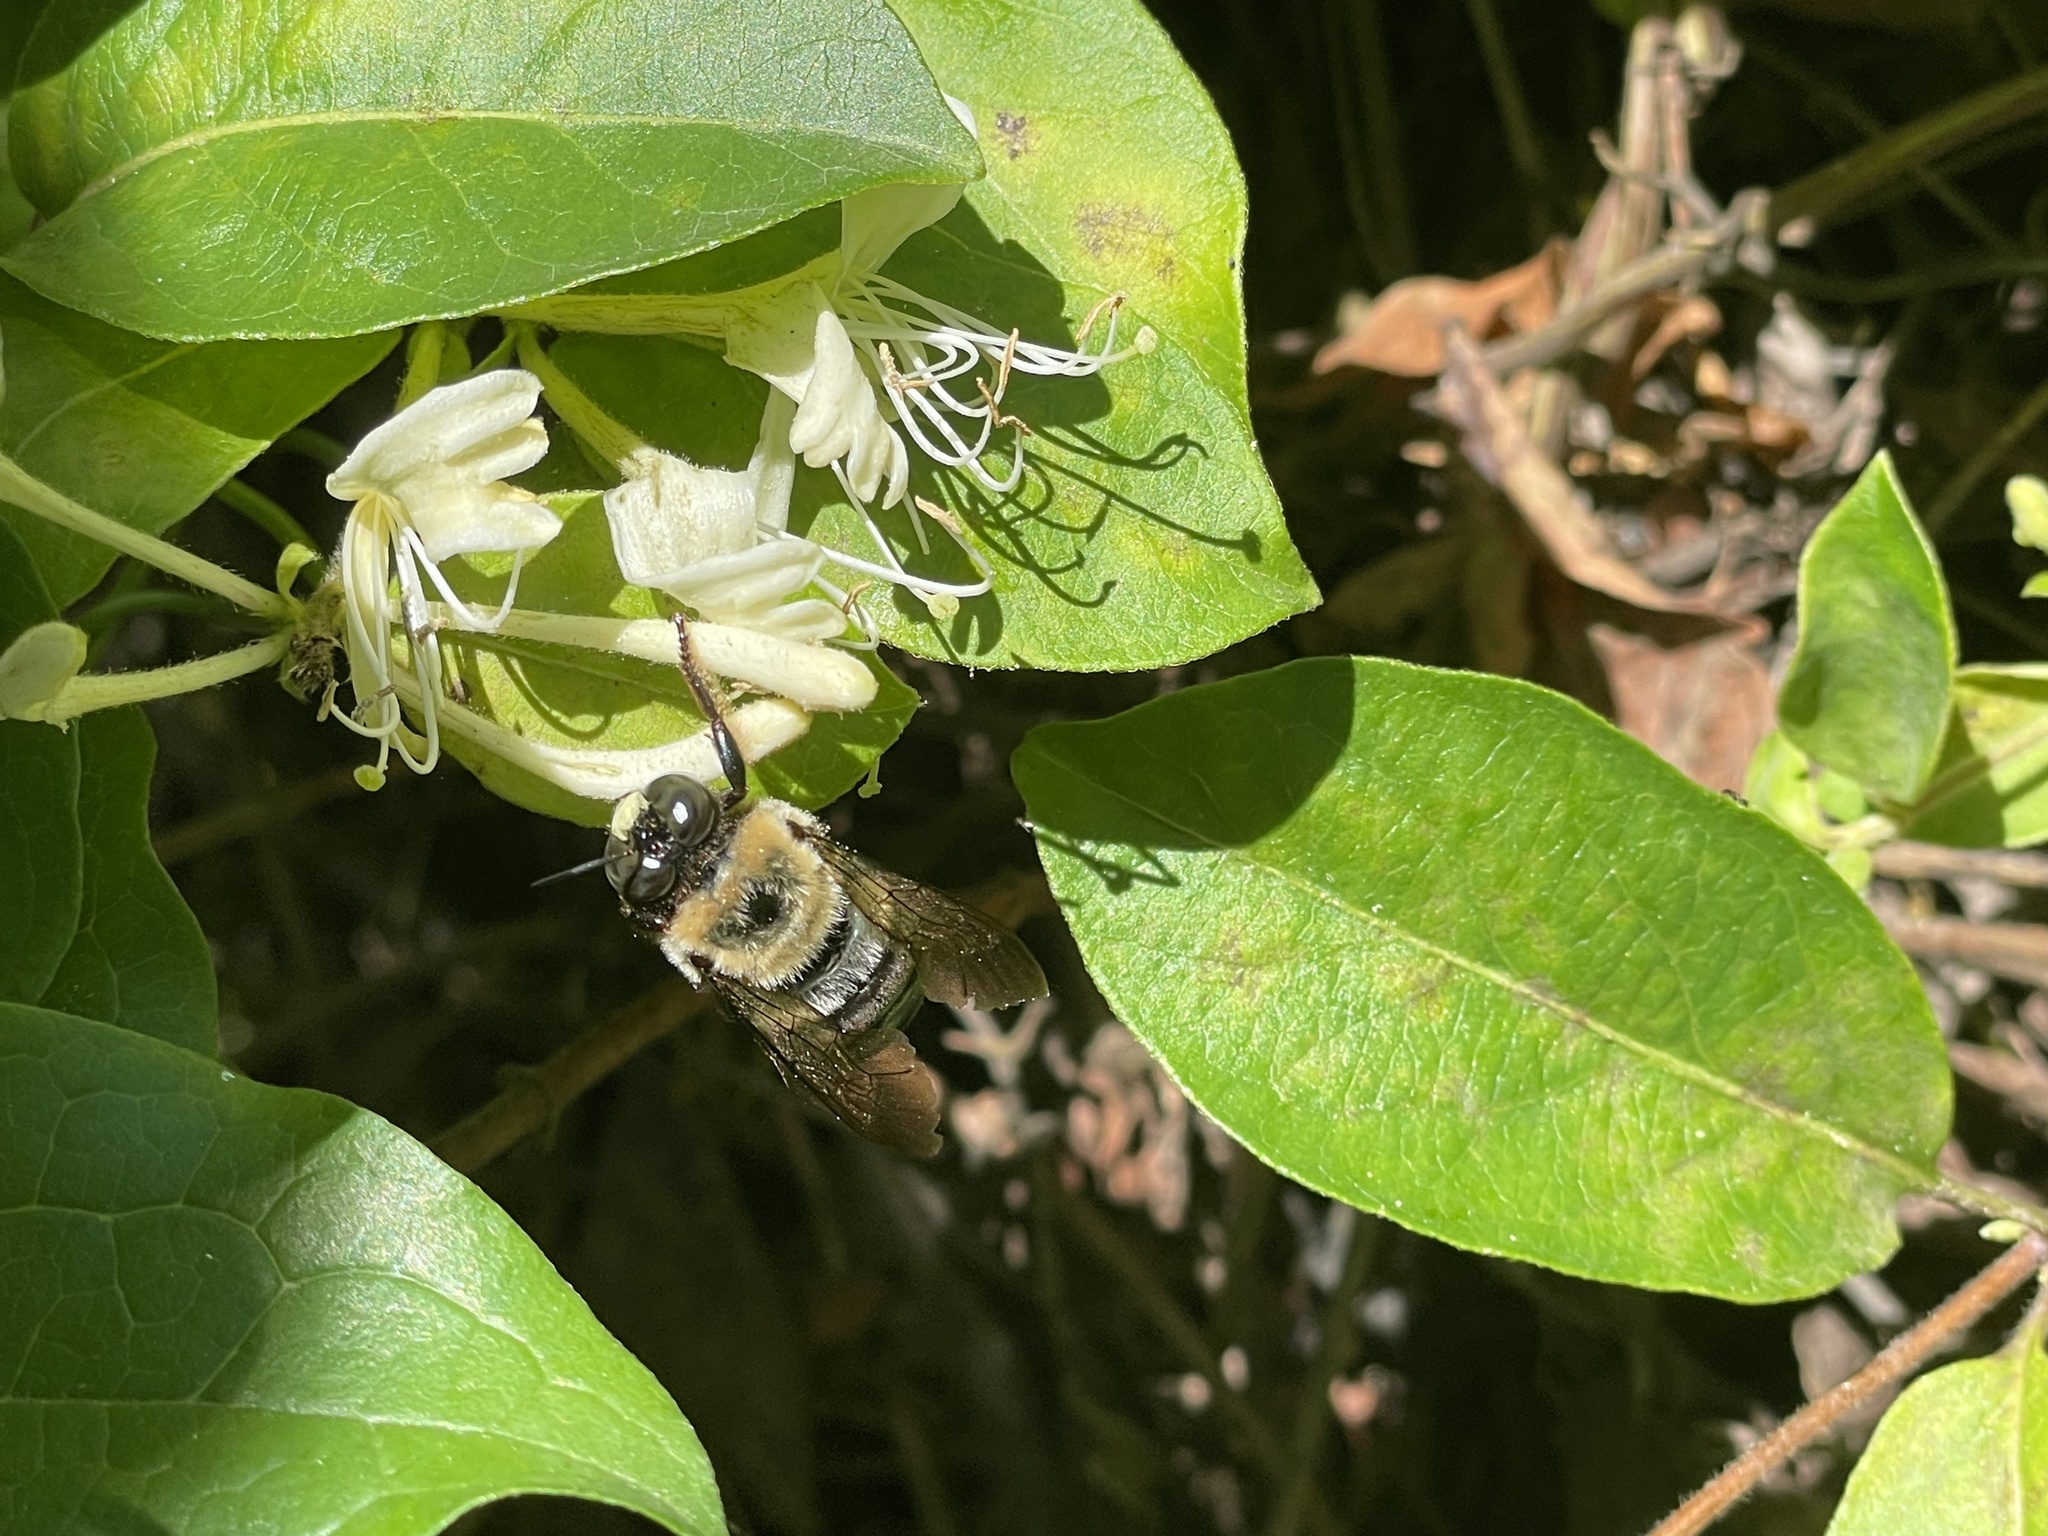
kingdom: Animalia
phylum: Arthropoda
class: Insecta
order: Hymenoptera
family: Apidae
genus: Xylocopa
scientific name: Xylocopa virginica
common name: Carpenter bee
